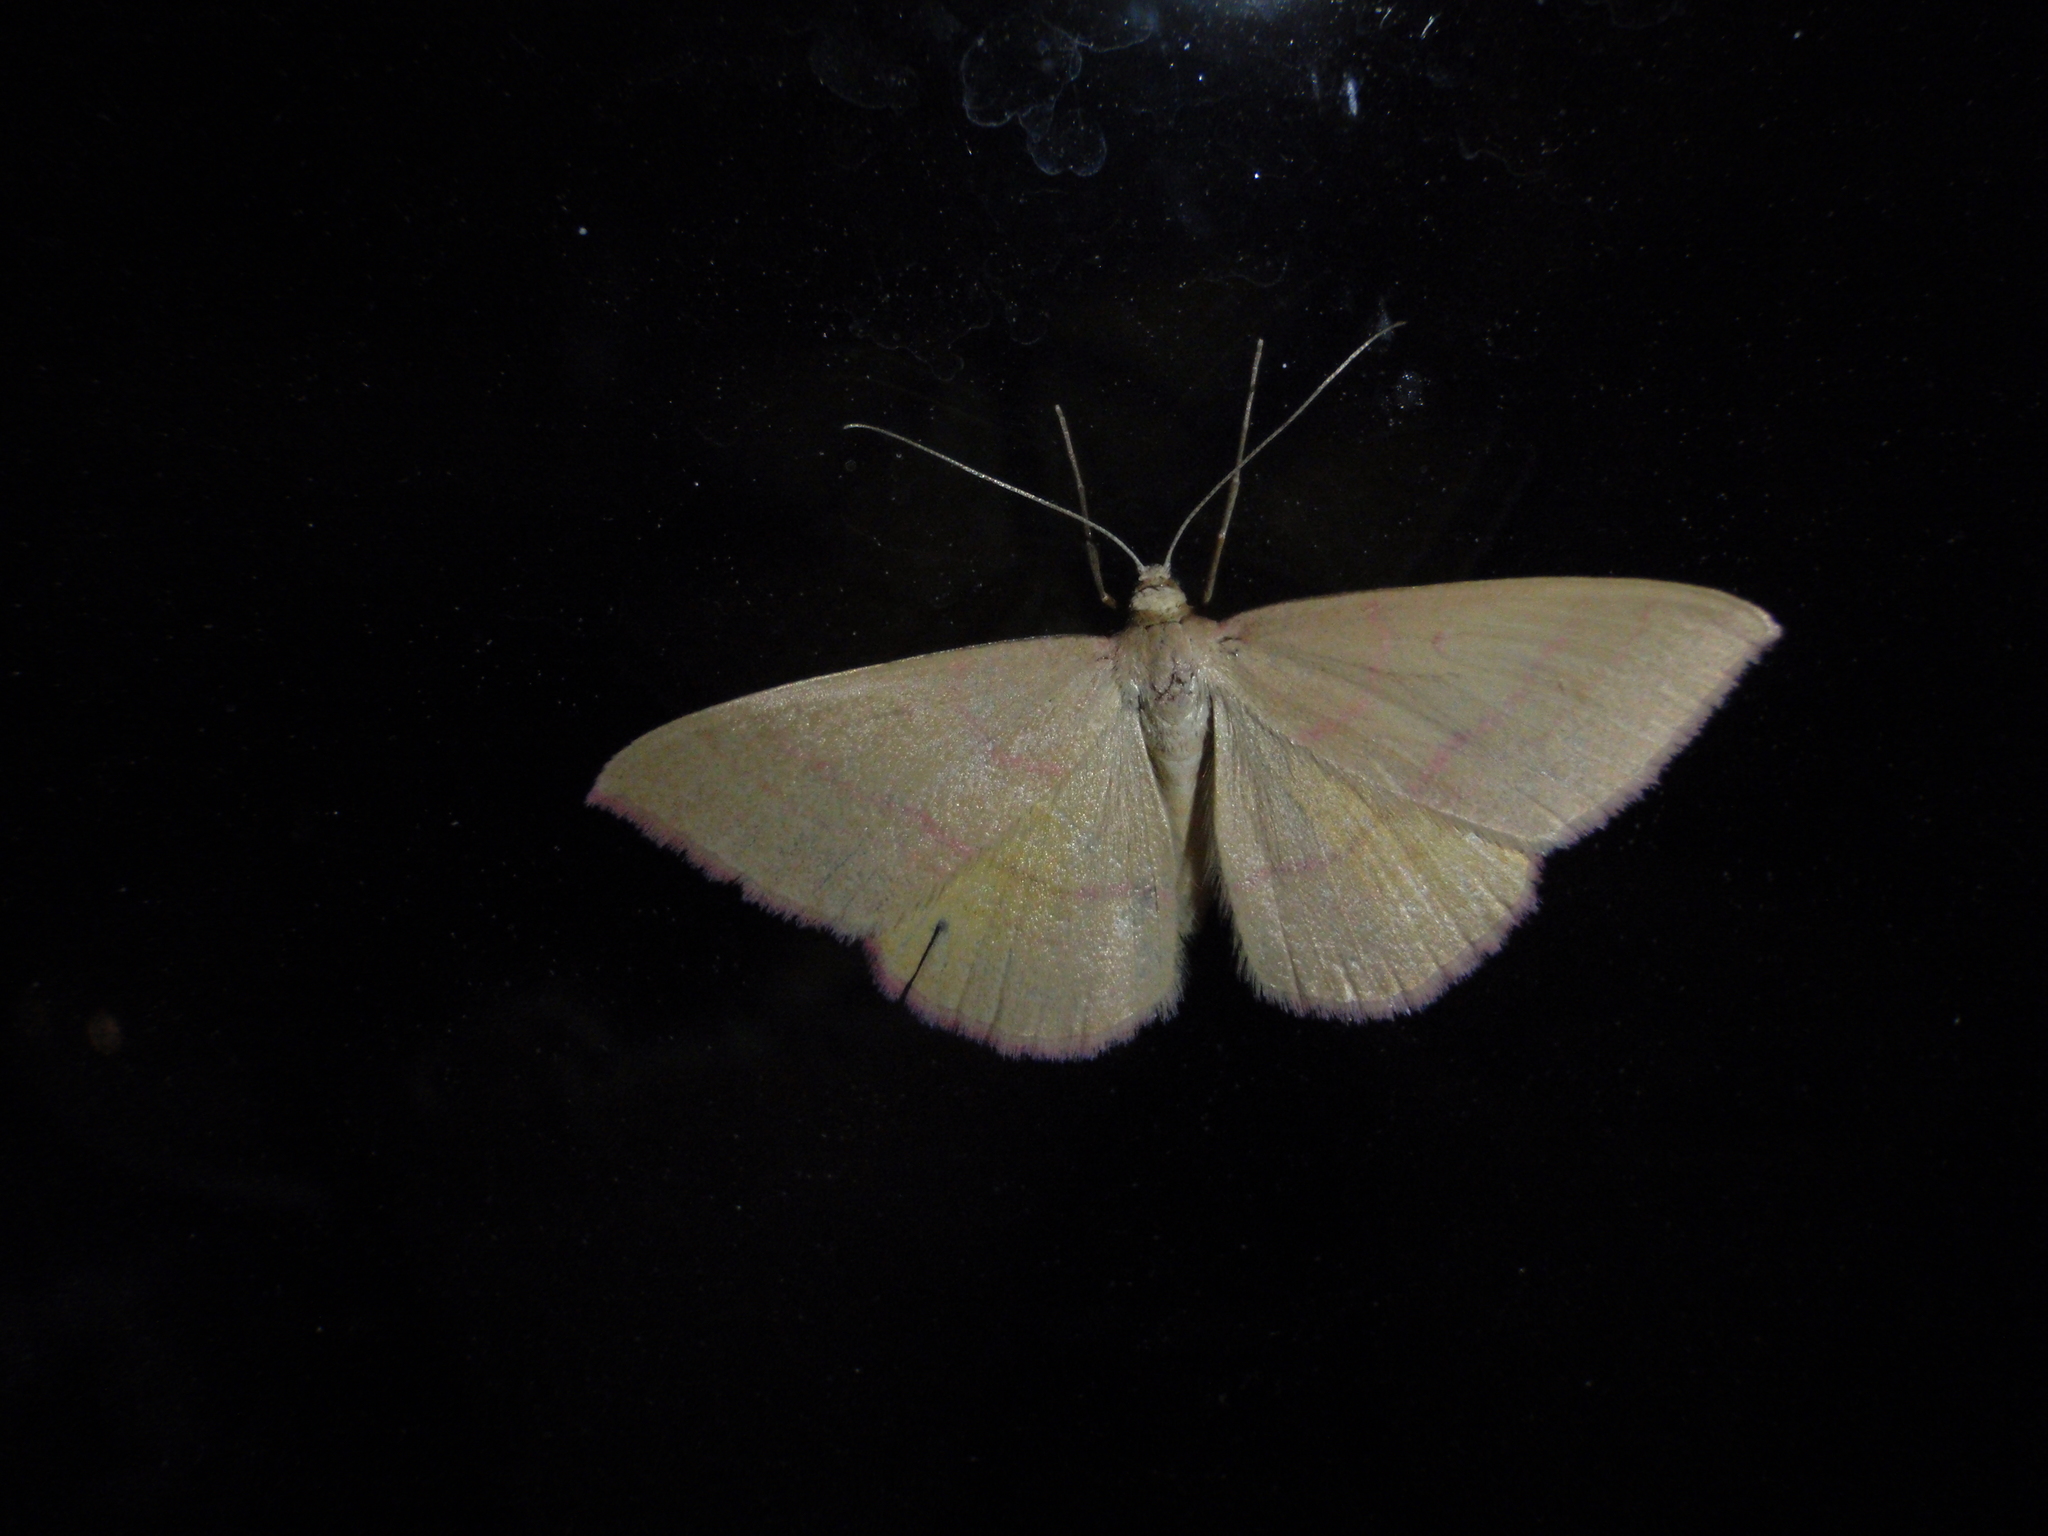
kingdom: Animalia
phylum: Arthropoda
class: Insecta
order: Lepidoptera
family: Geometridae
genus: Rhodostrophia
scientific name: Rhodostrophia calabra
